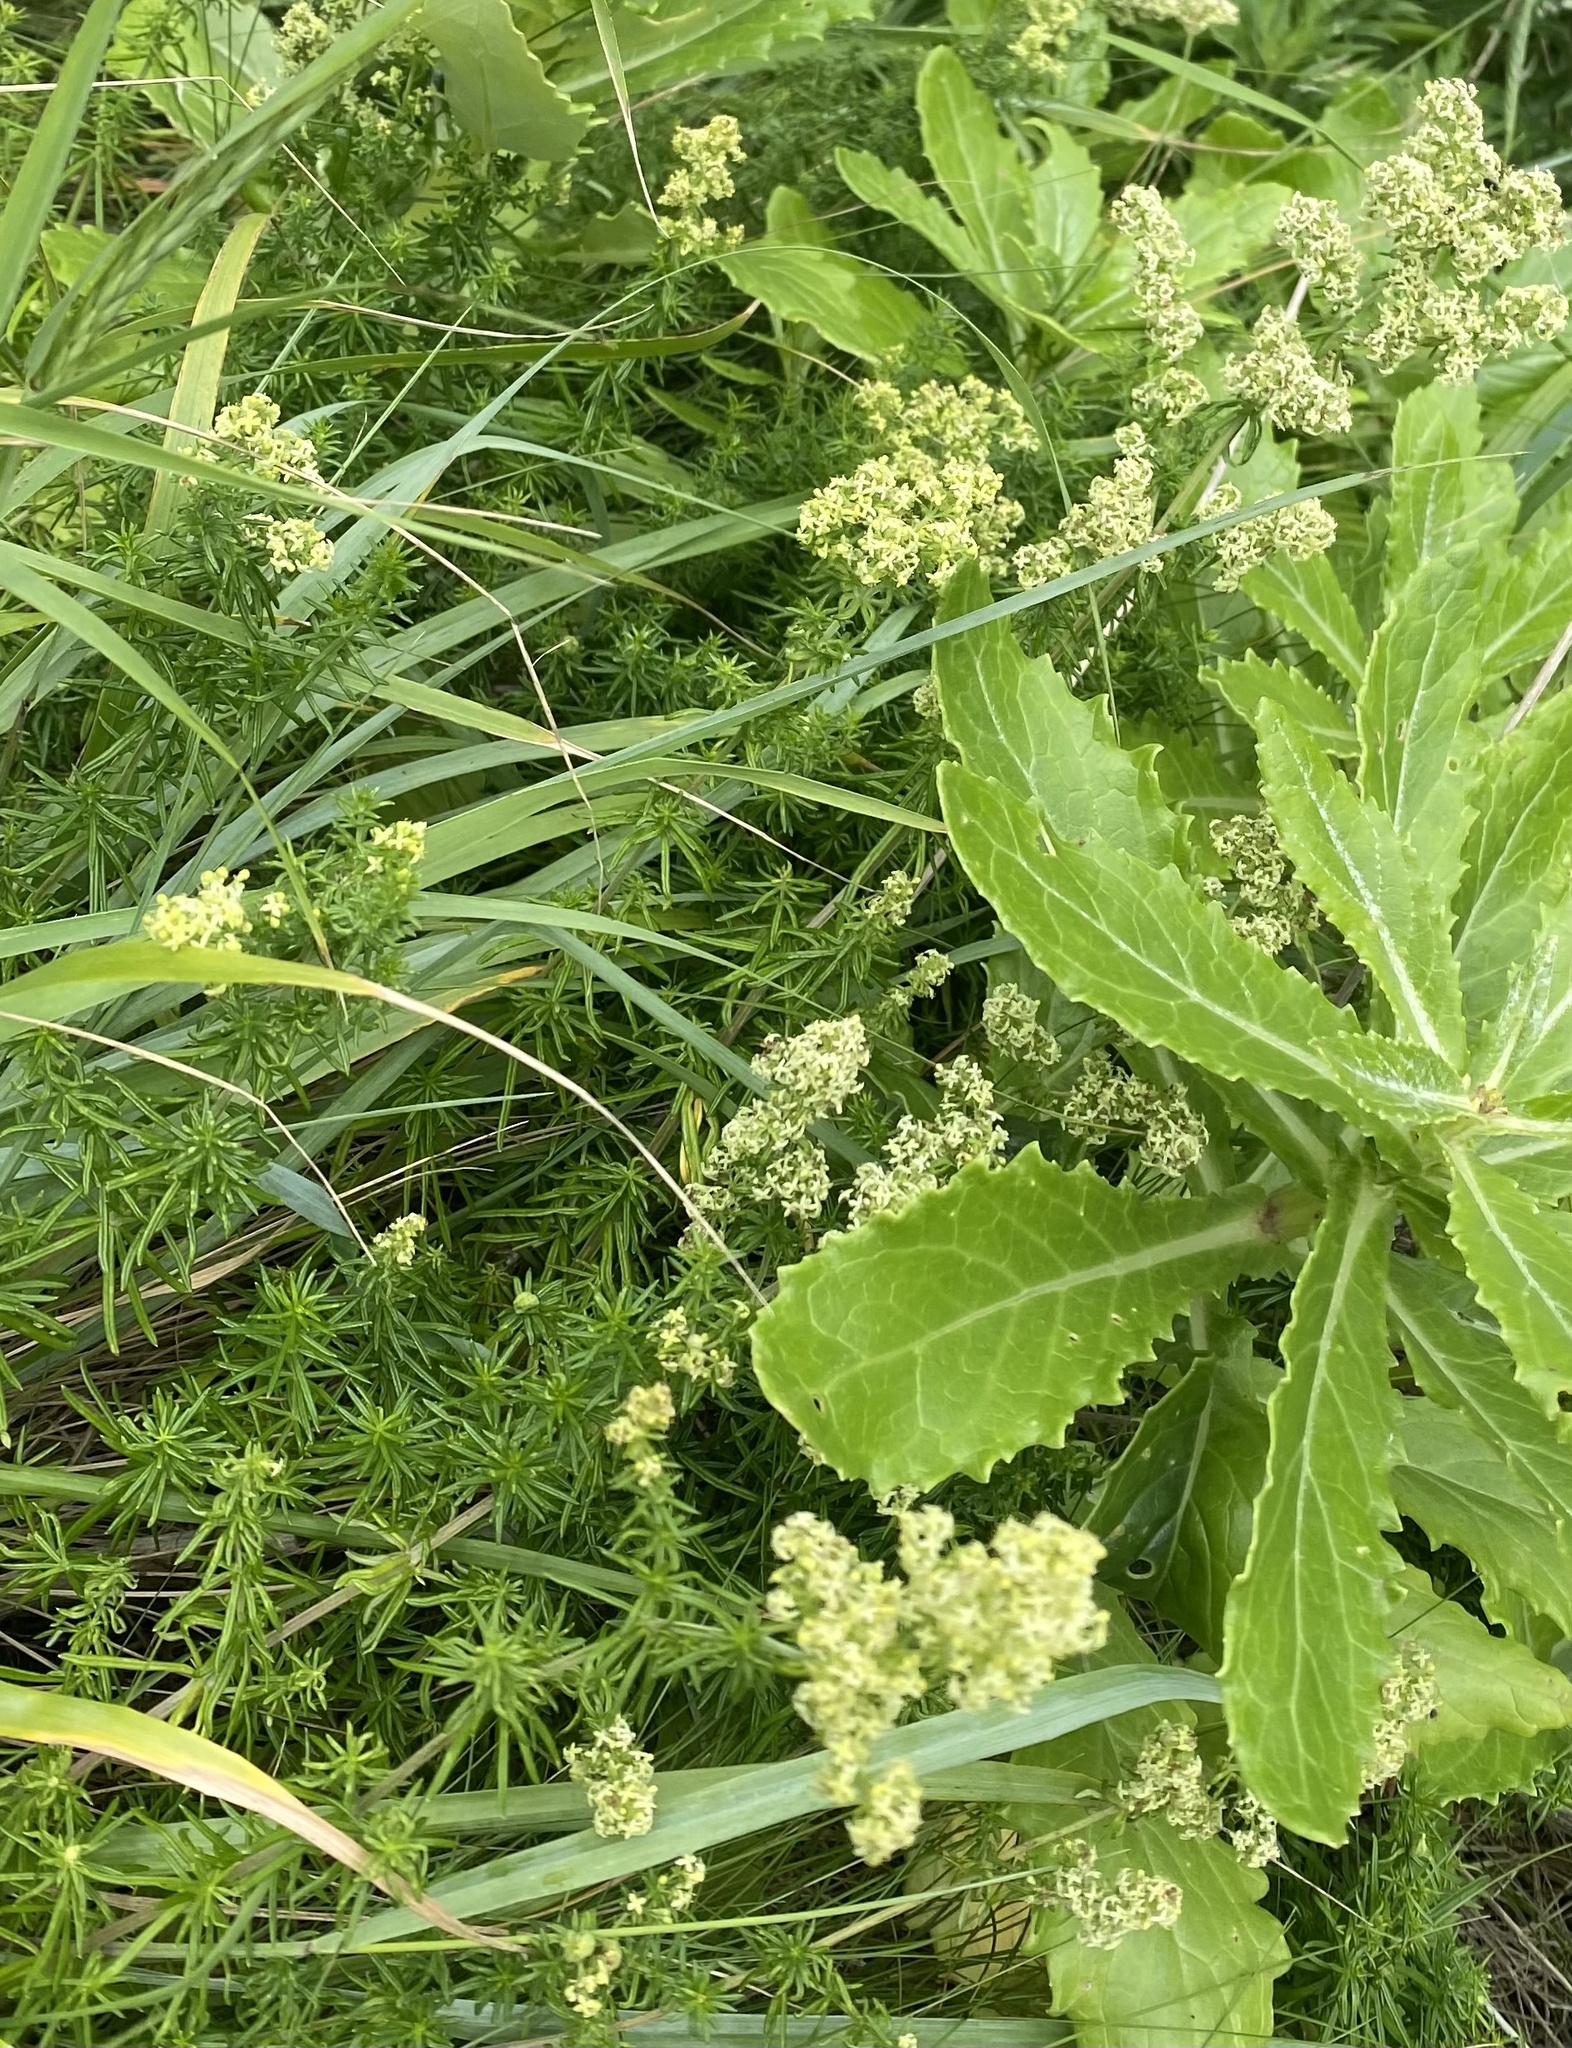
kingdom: Plantae
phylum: Tracheophyta
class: Magnoliopsida
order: Gentianales
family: Rubiaceae
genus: Galium
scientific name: Galium verum
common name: Lady's bedstraw
